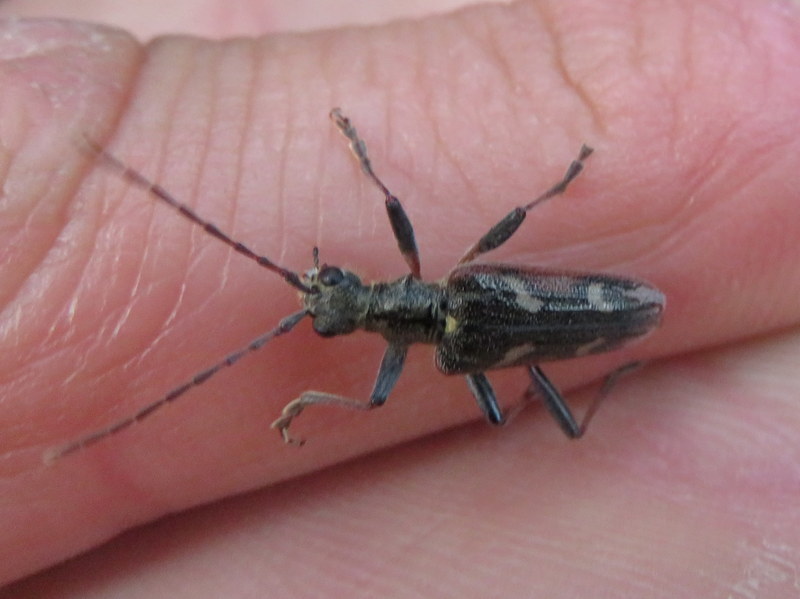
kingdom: Animalia
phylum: Arthropoda
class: Insecta
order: Coleoptera
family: Cerambycidae
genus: Rhagium
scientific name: Rhagium bifasciatum
